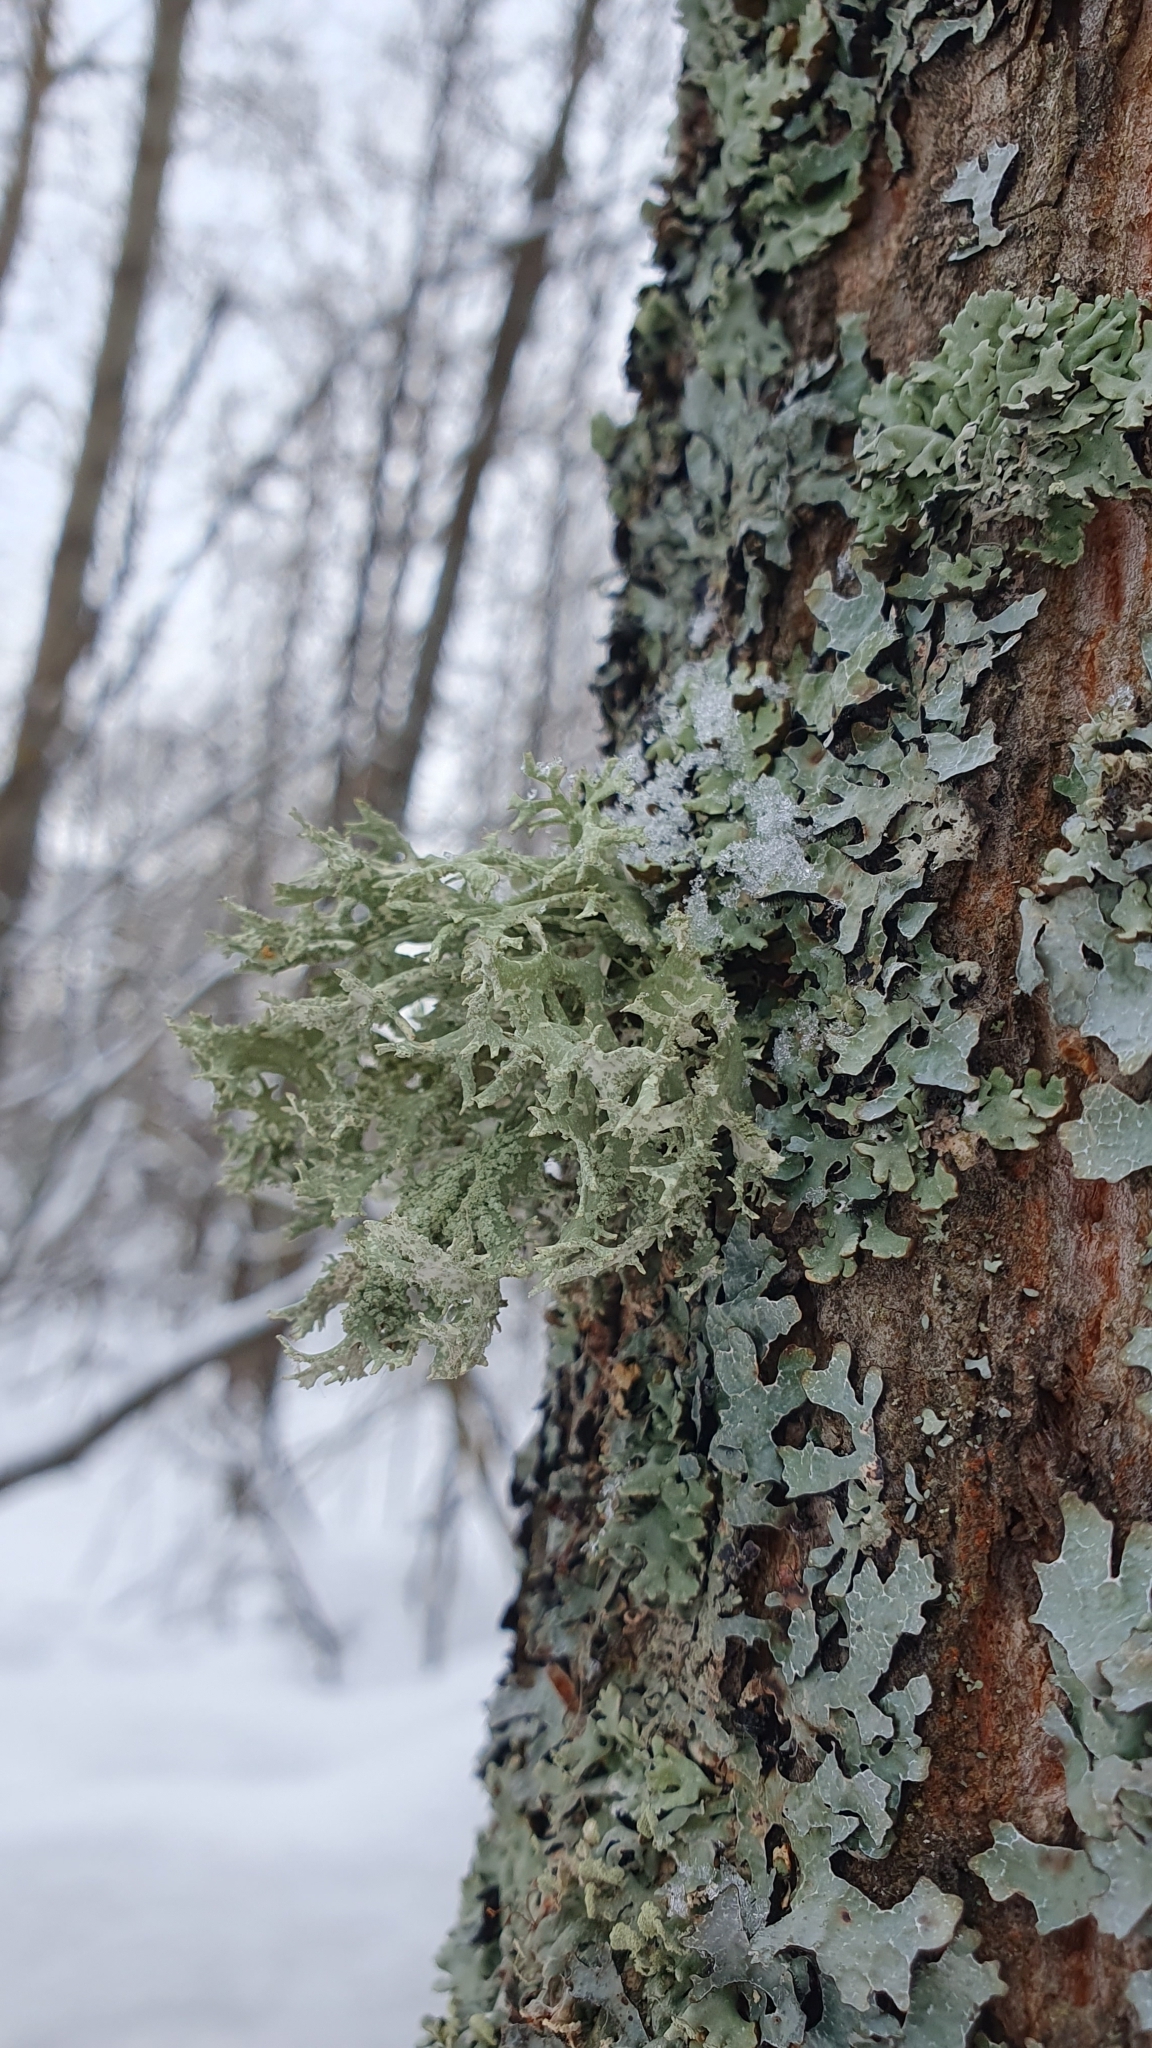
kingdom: Fungi
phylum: Ascomycota
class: Lecanoromycetes
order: Lecanorales
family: Parmeliaceae
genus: Evernia
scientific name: Evernia prunastri
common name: Oak moss
